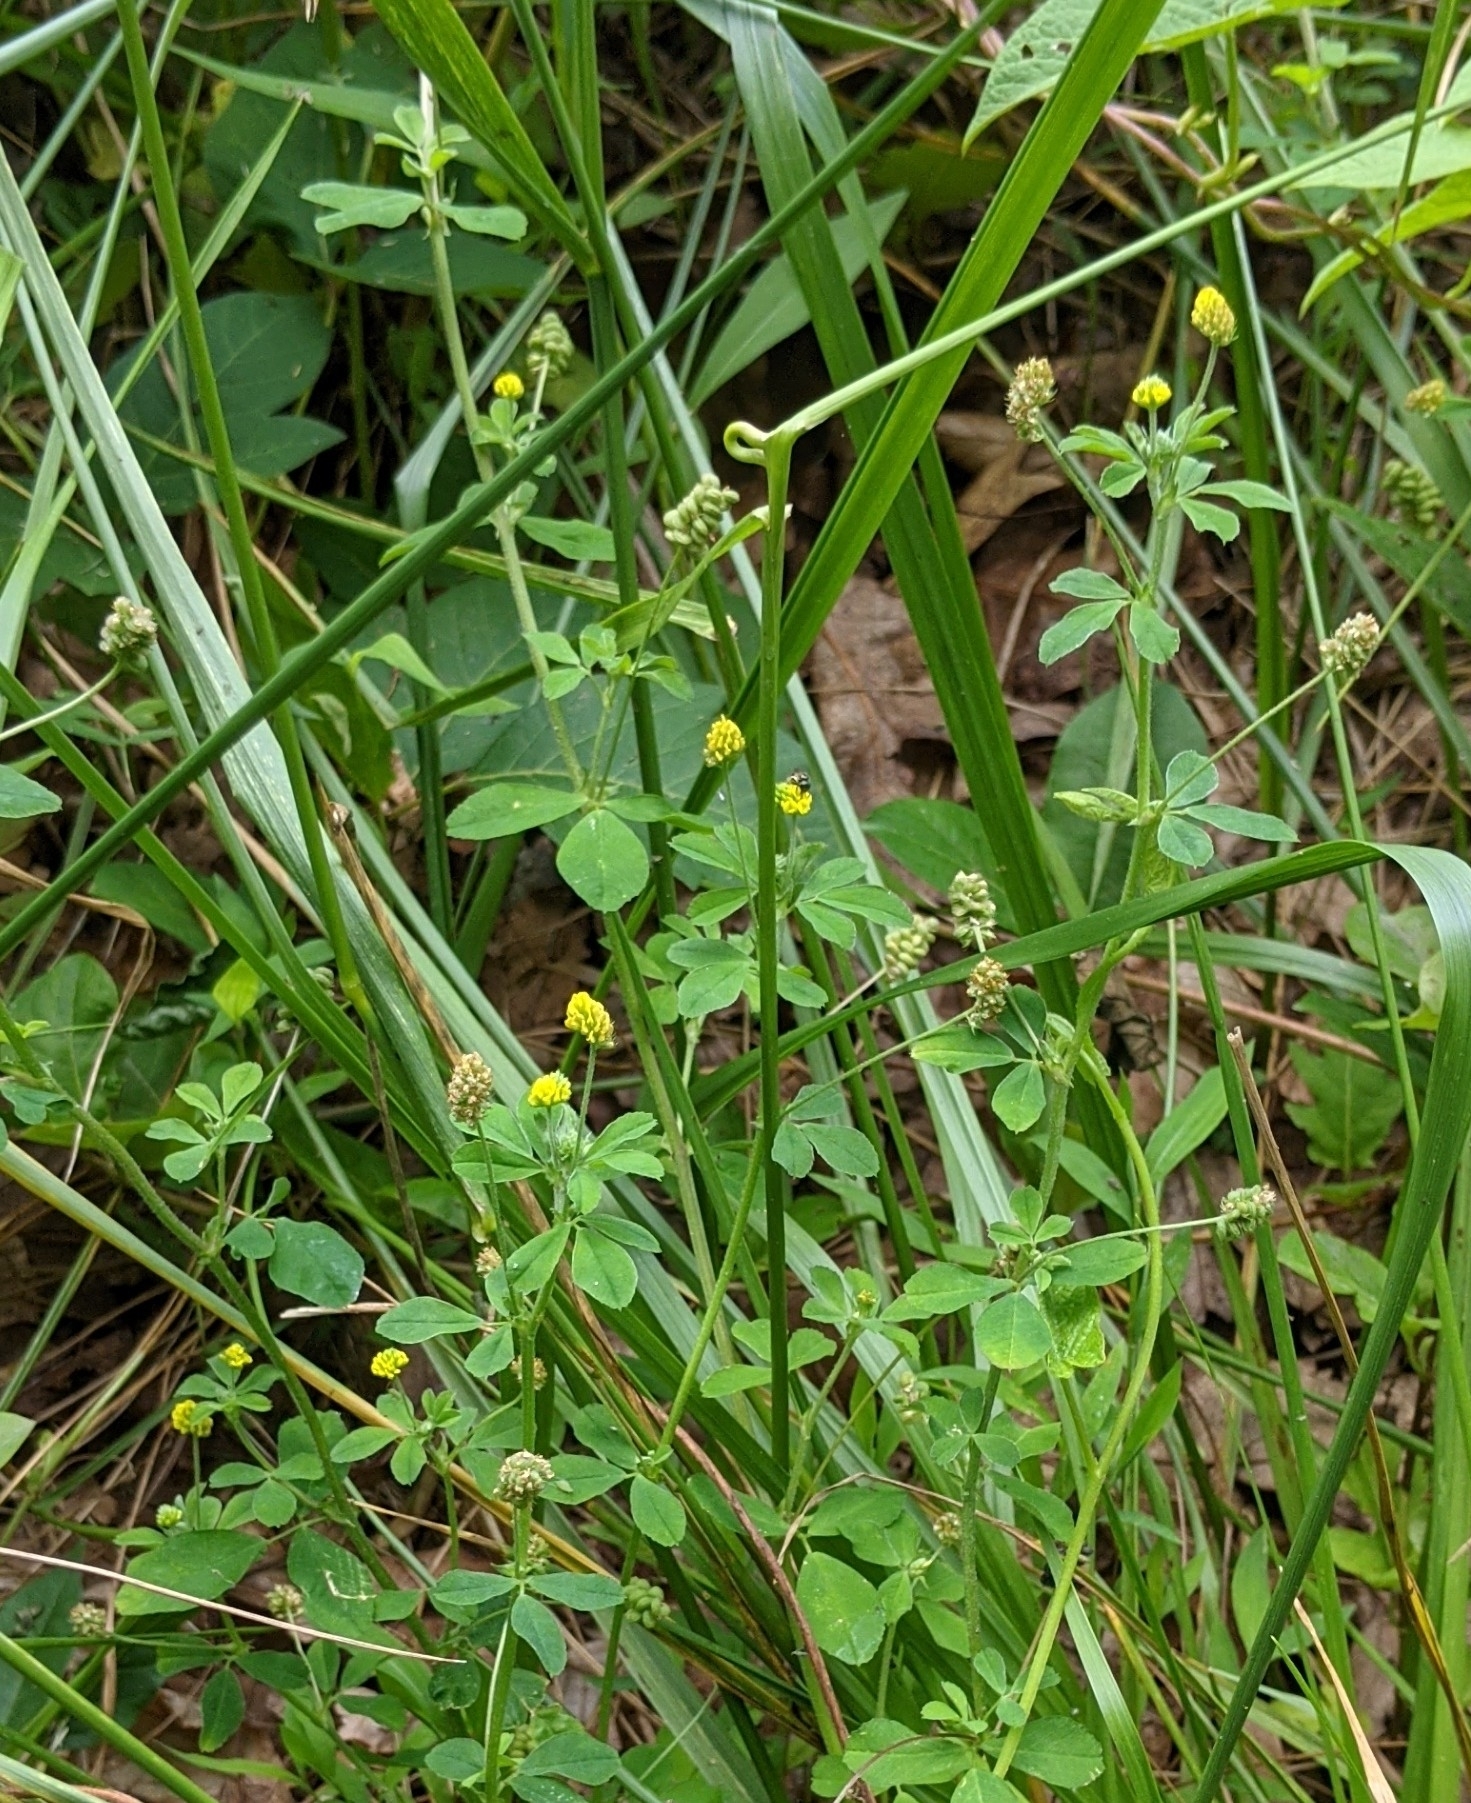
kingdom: Plantae
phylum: Tracheophyta
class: Magnoliopsida
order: Fabales
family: Fabaceae
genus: Medicago
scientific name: Medicago lupulina
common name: Black medick
